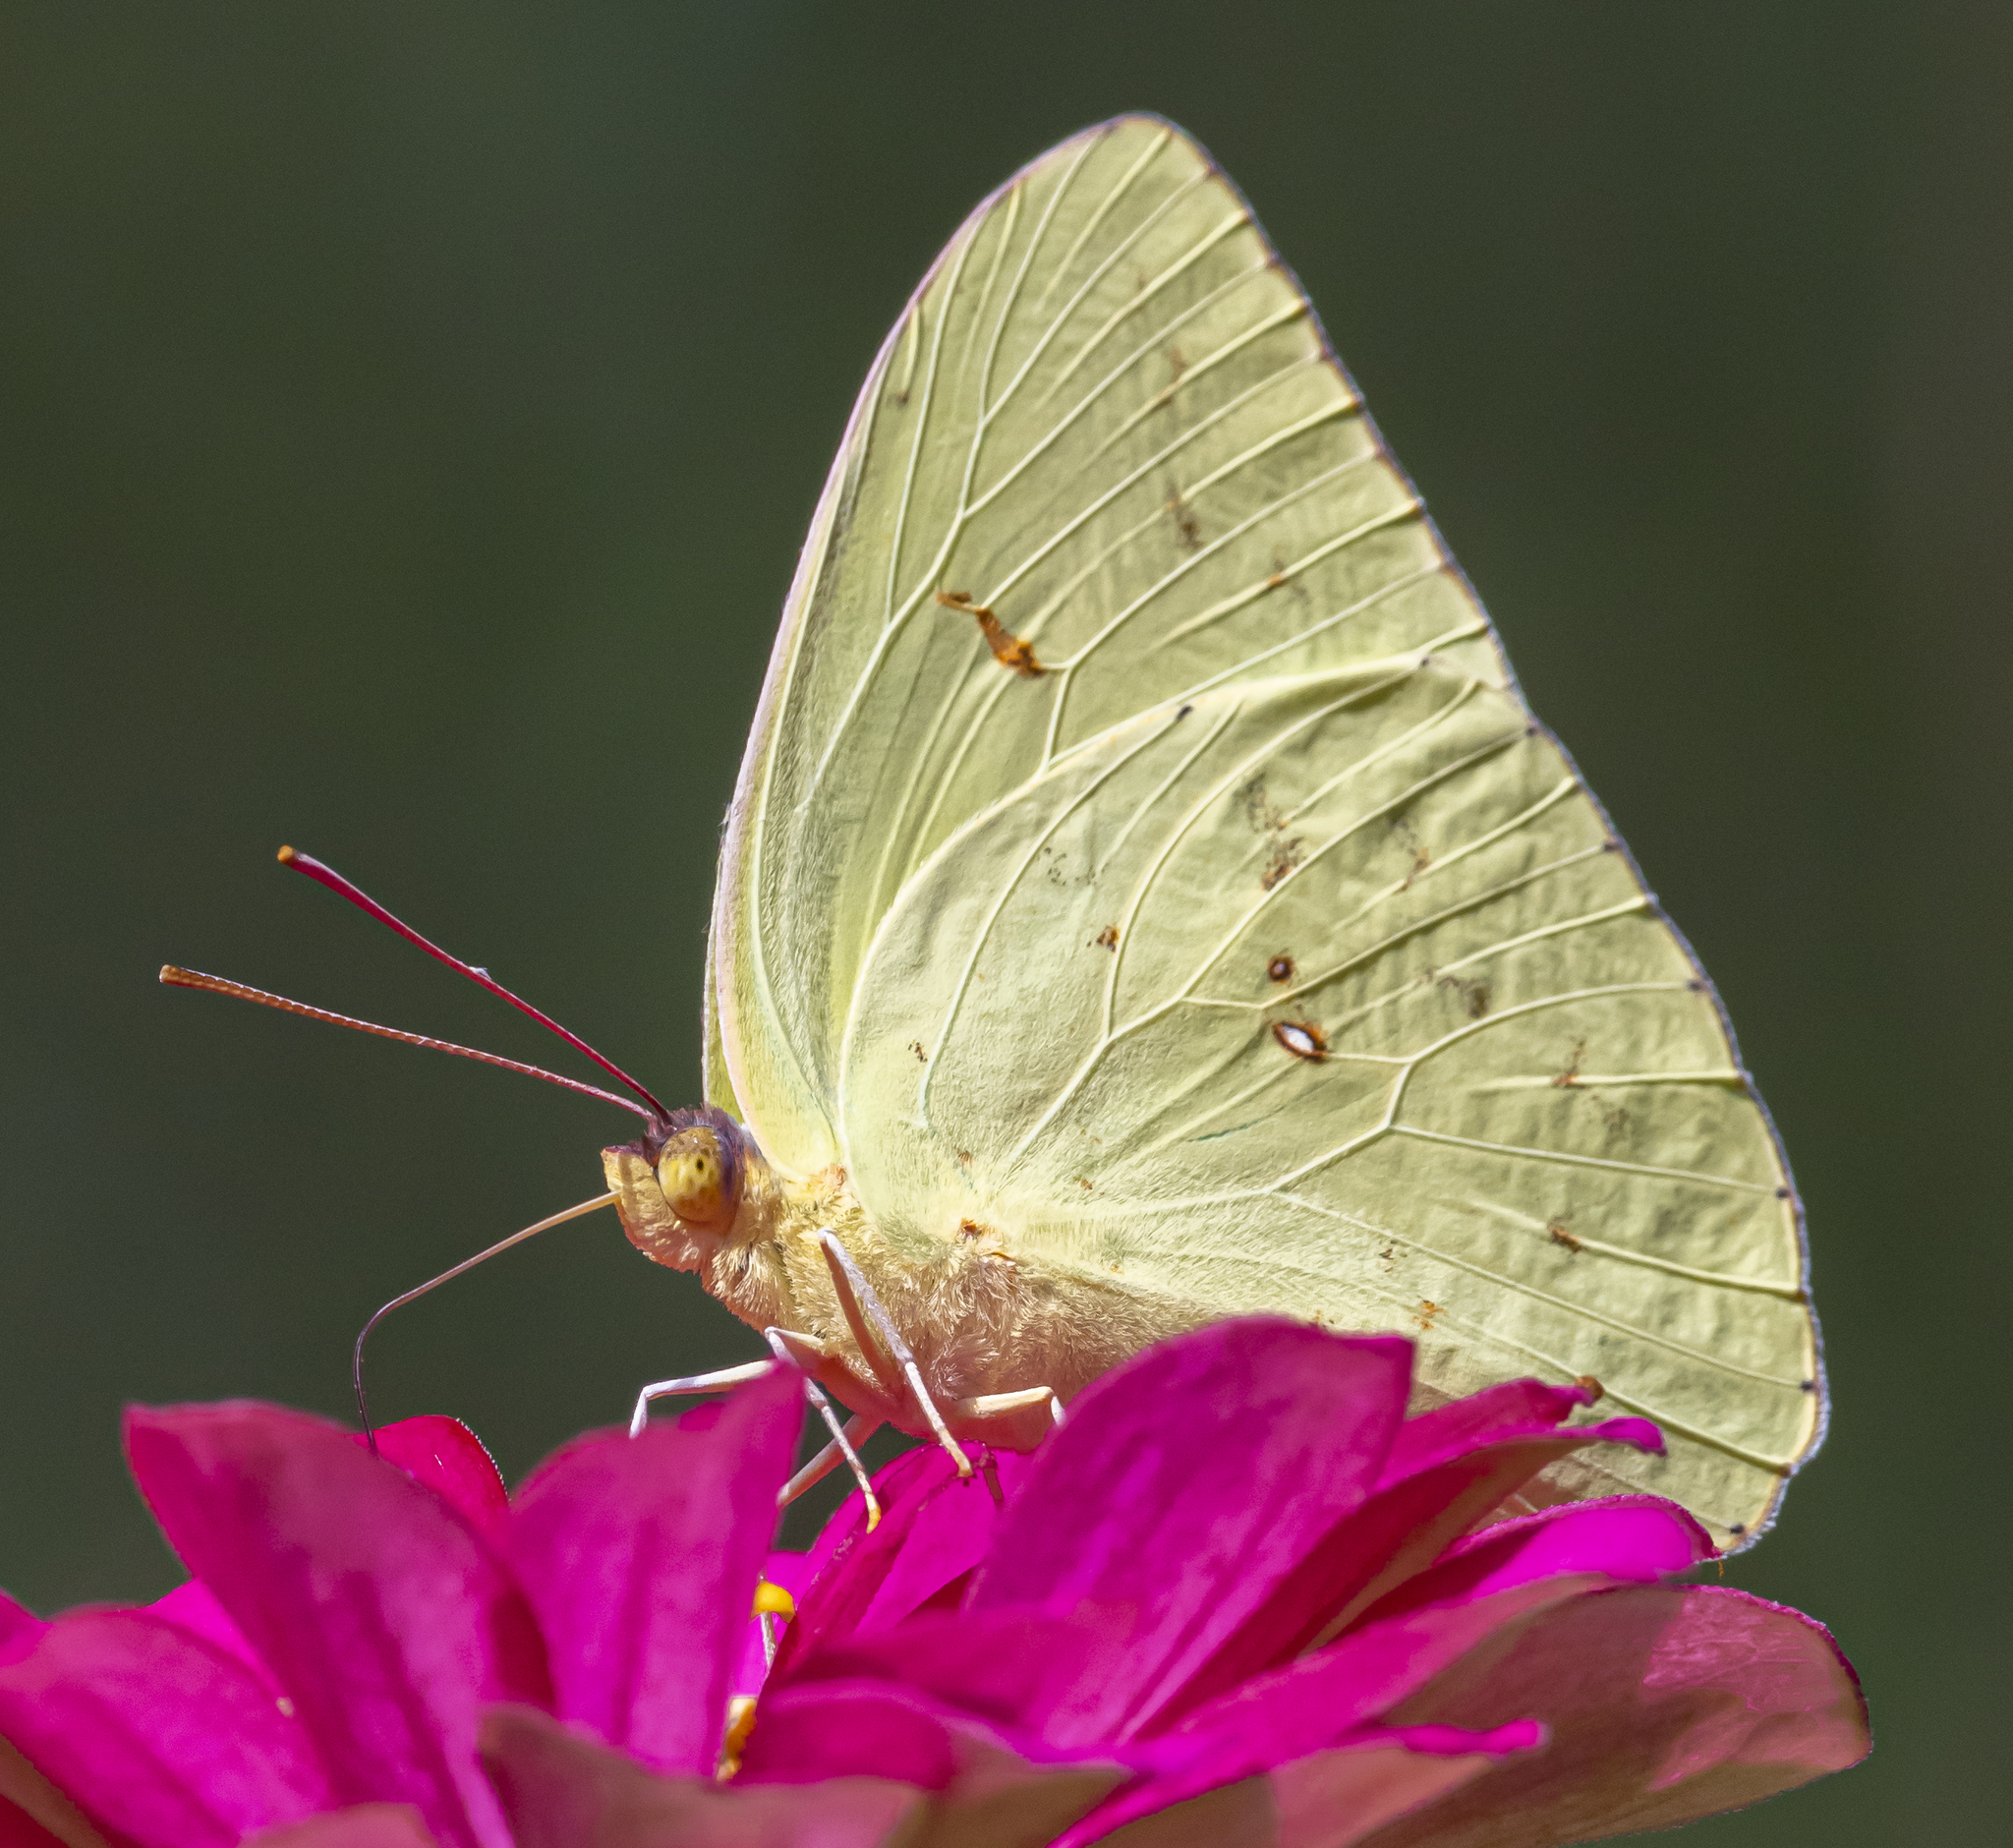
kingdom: Animalia
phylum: Arthropoda
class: Insecta
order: Lepidoptera
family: Pieridae
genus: Phoebis
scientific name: Phoebis sennae
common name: Cloudless sulphur
